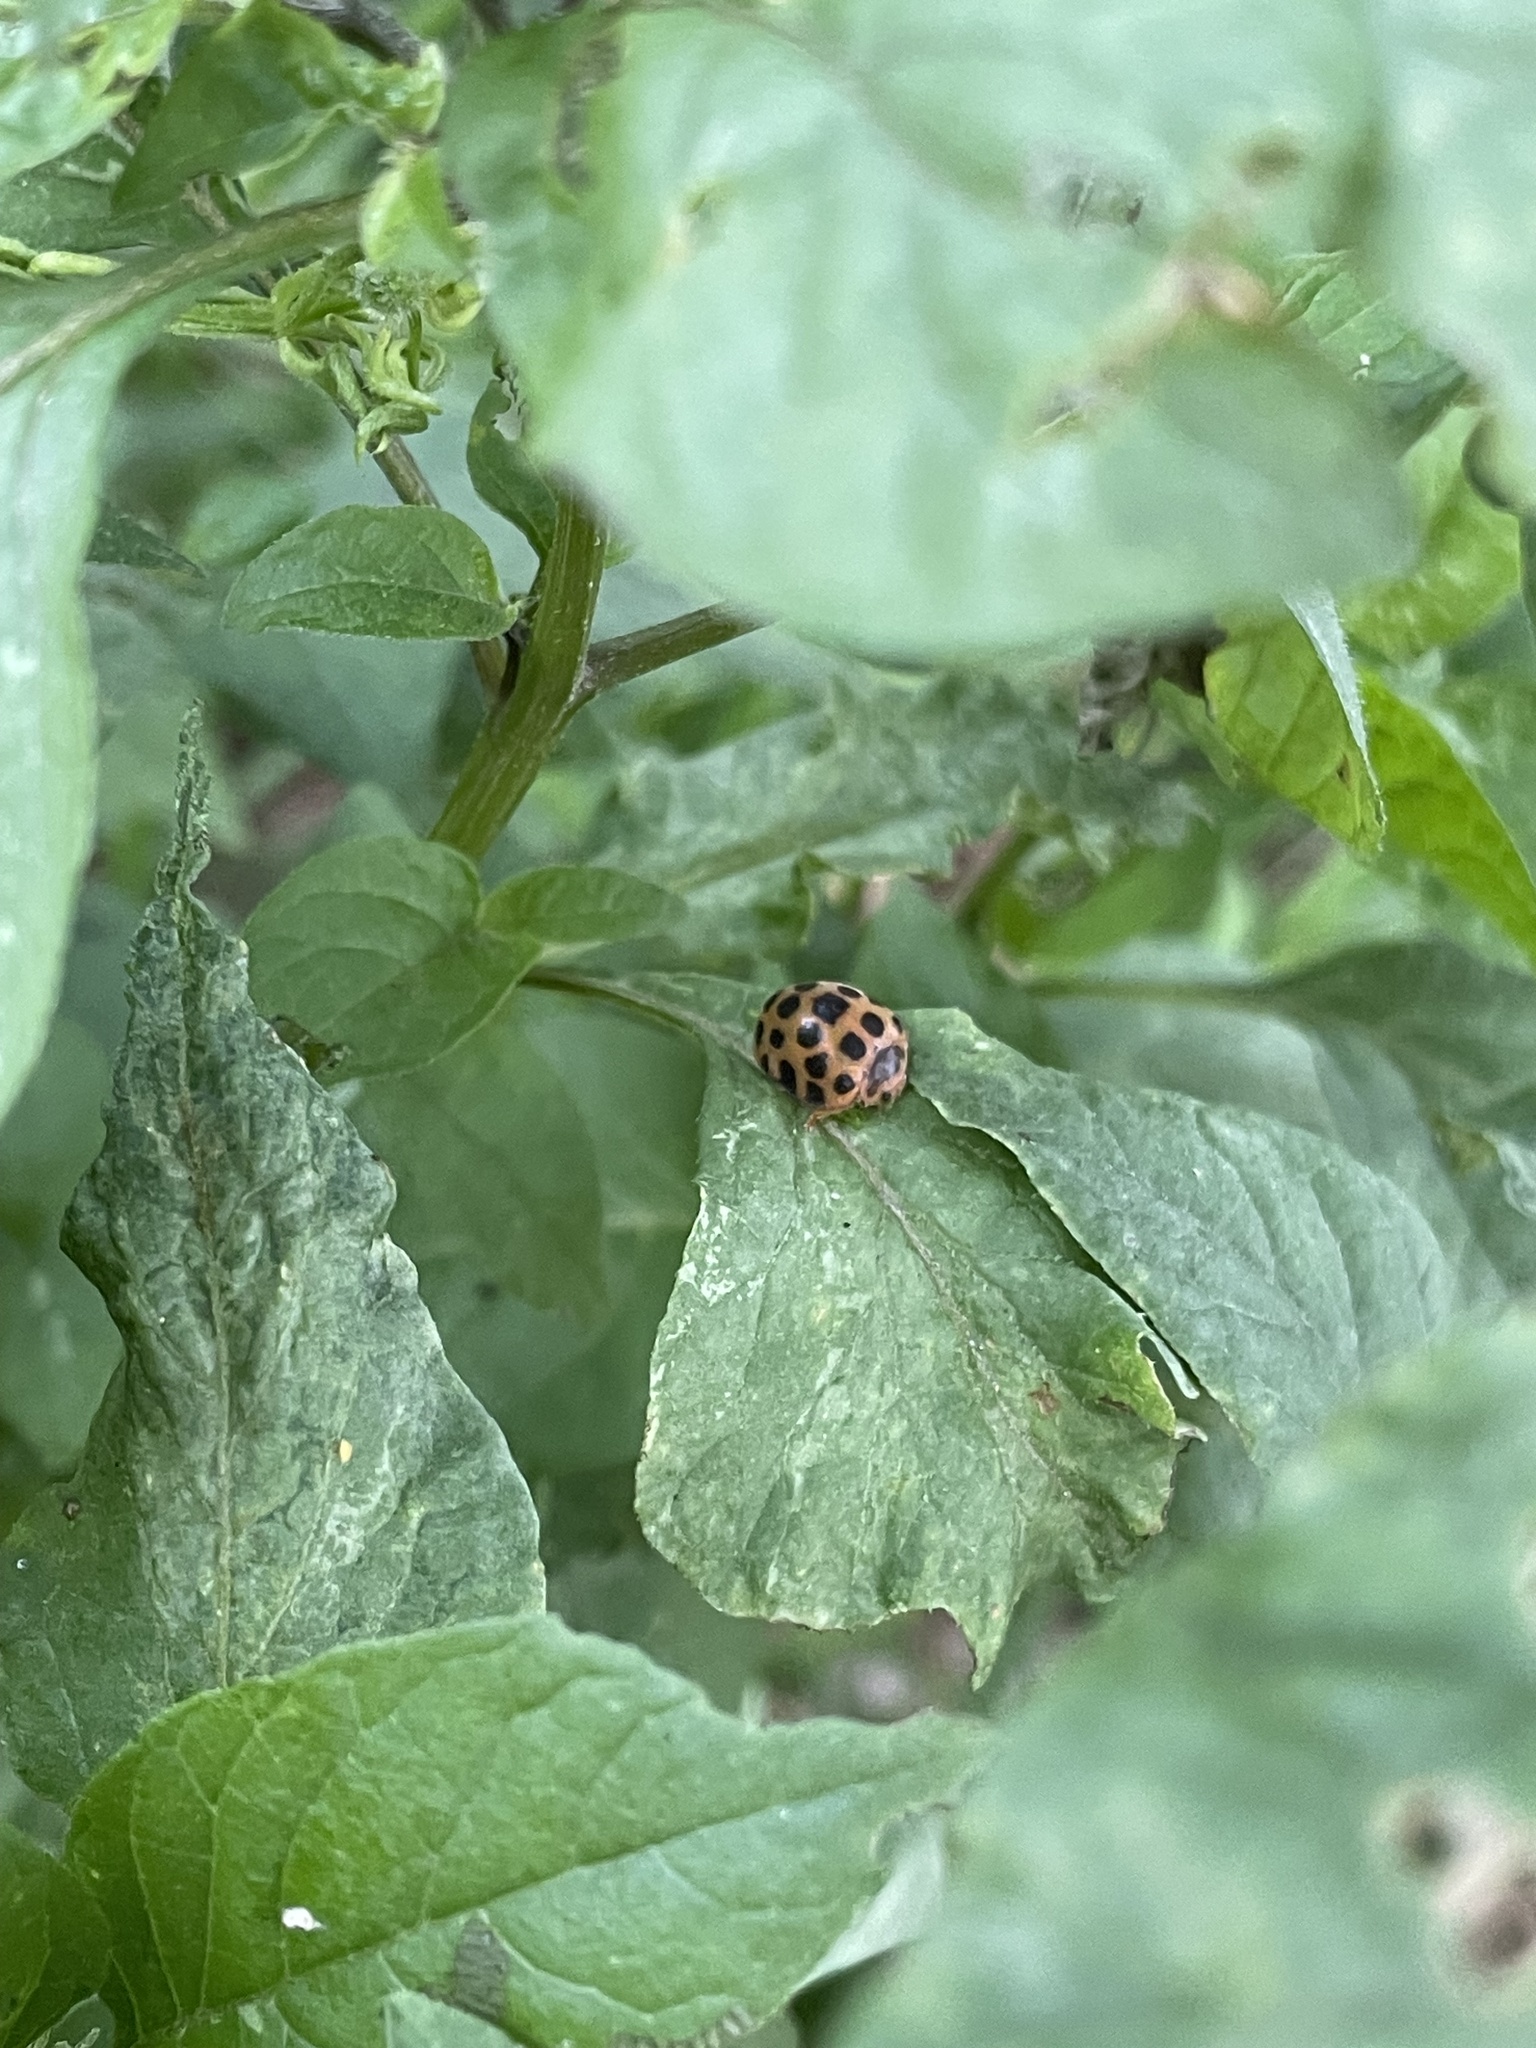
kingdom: Animalia
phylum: Arthropoda
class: Insecta
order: Coleoptera
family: Coccinellidae
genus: Henosepilachna
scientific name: Henosepilachna vigintioctopunctata
